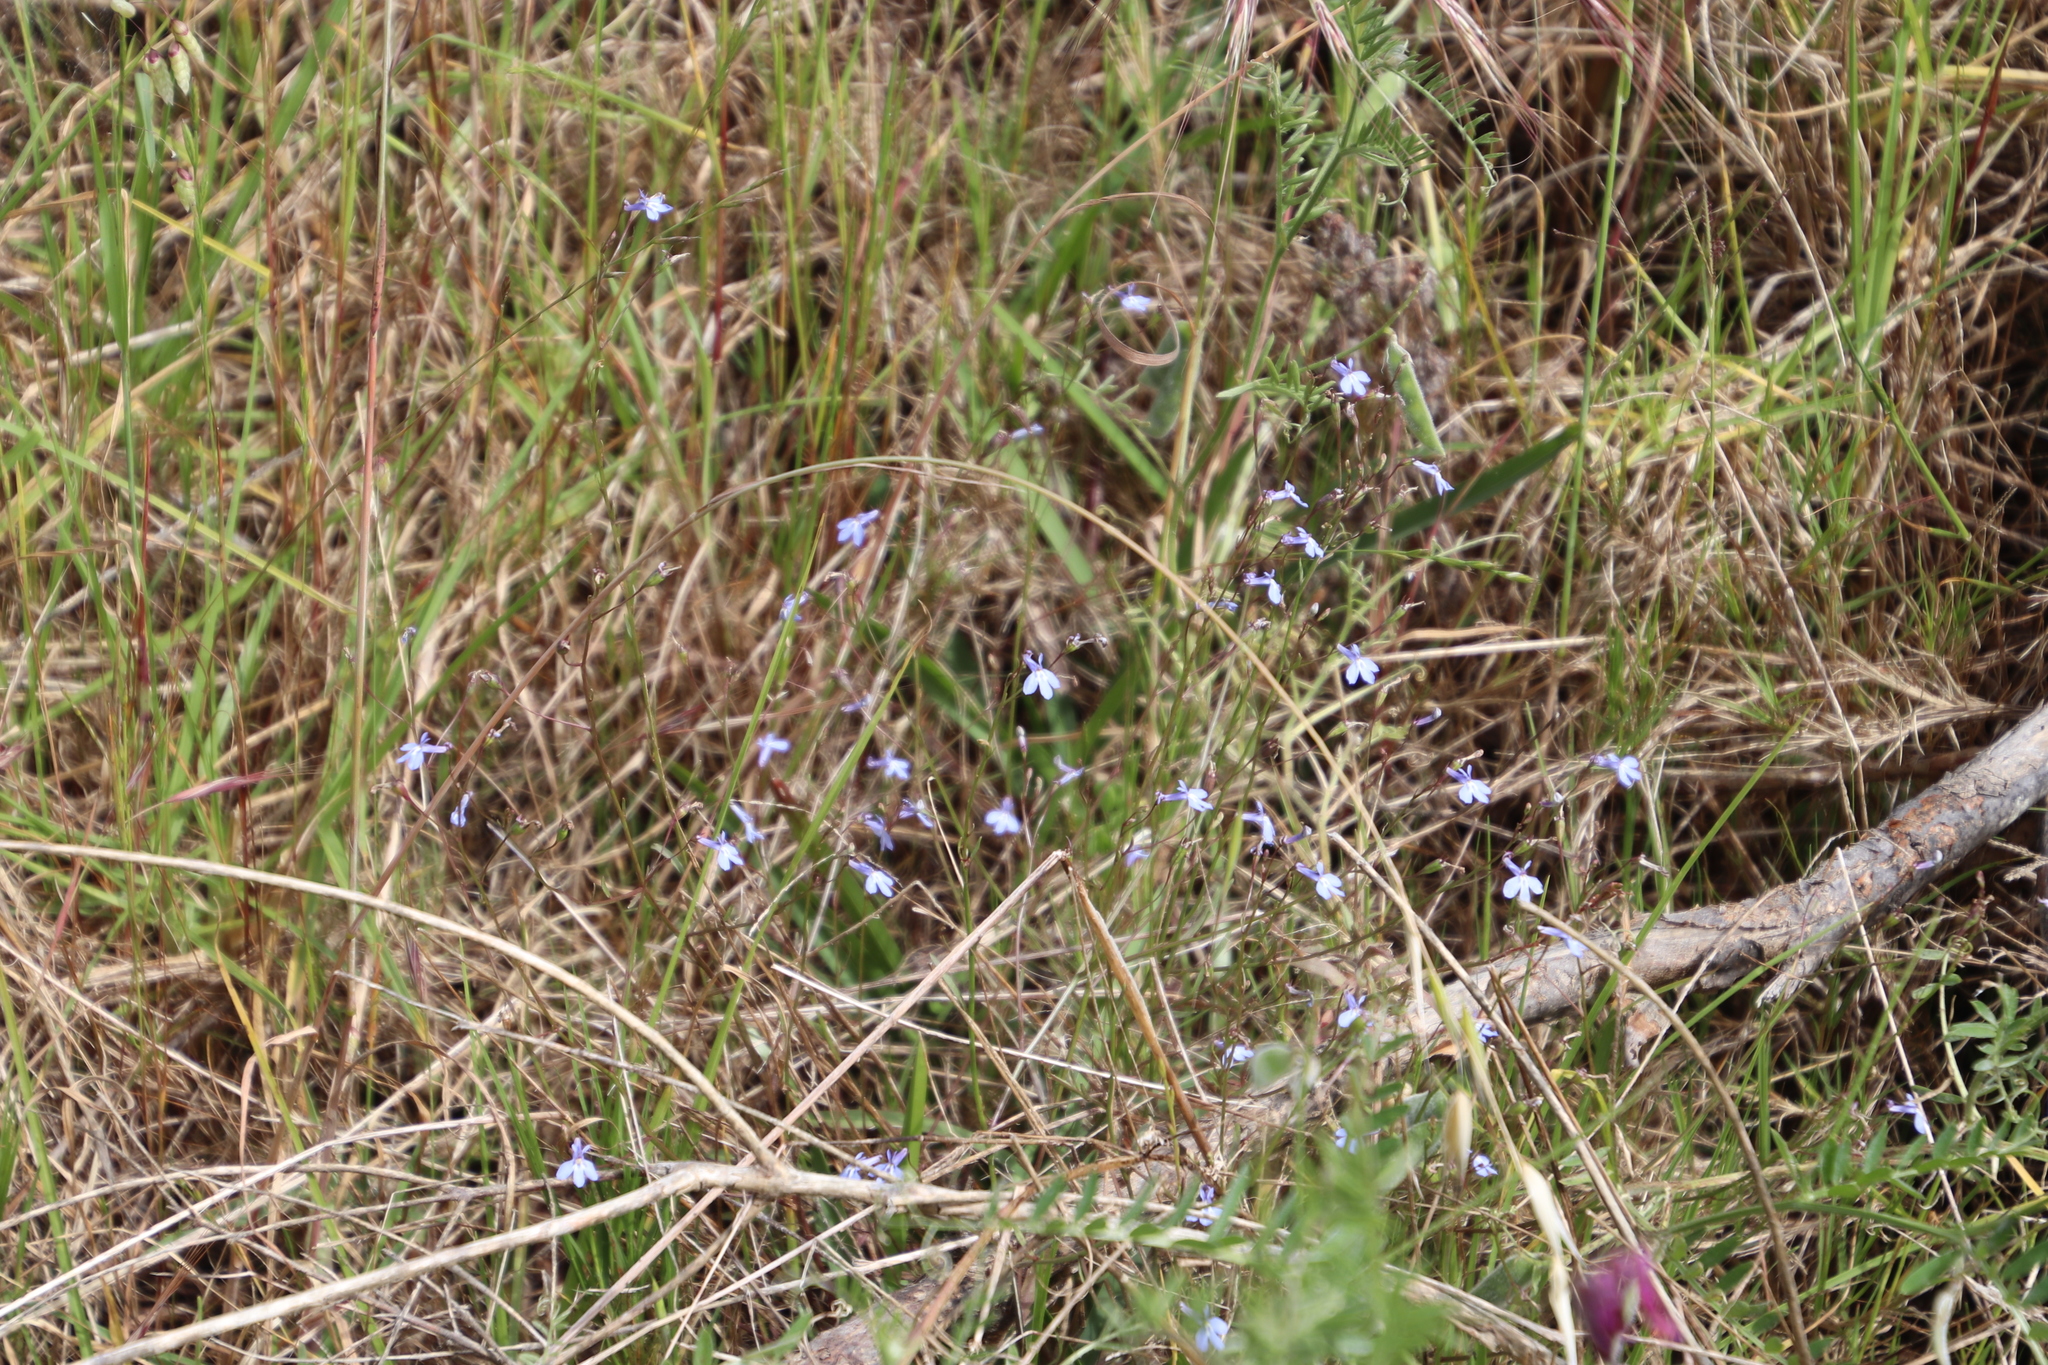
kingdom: Plantae
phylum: Tracheophyta
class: Magnoliopsida
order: Asterales
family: Campanulaceae
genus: Lobelia
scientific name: Lobelia erinus
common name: Edging lobelia
